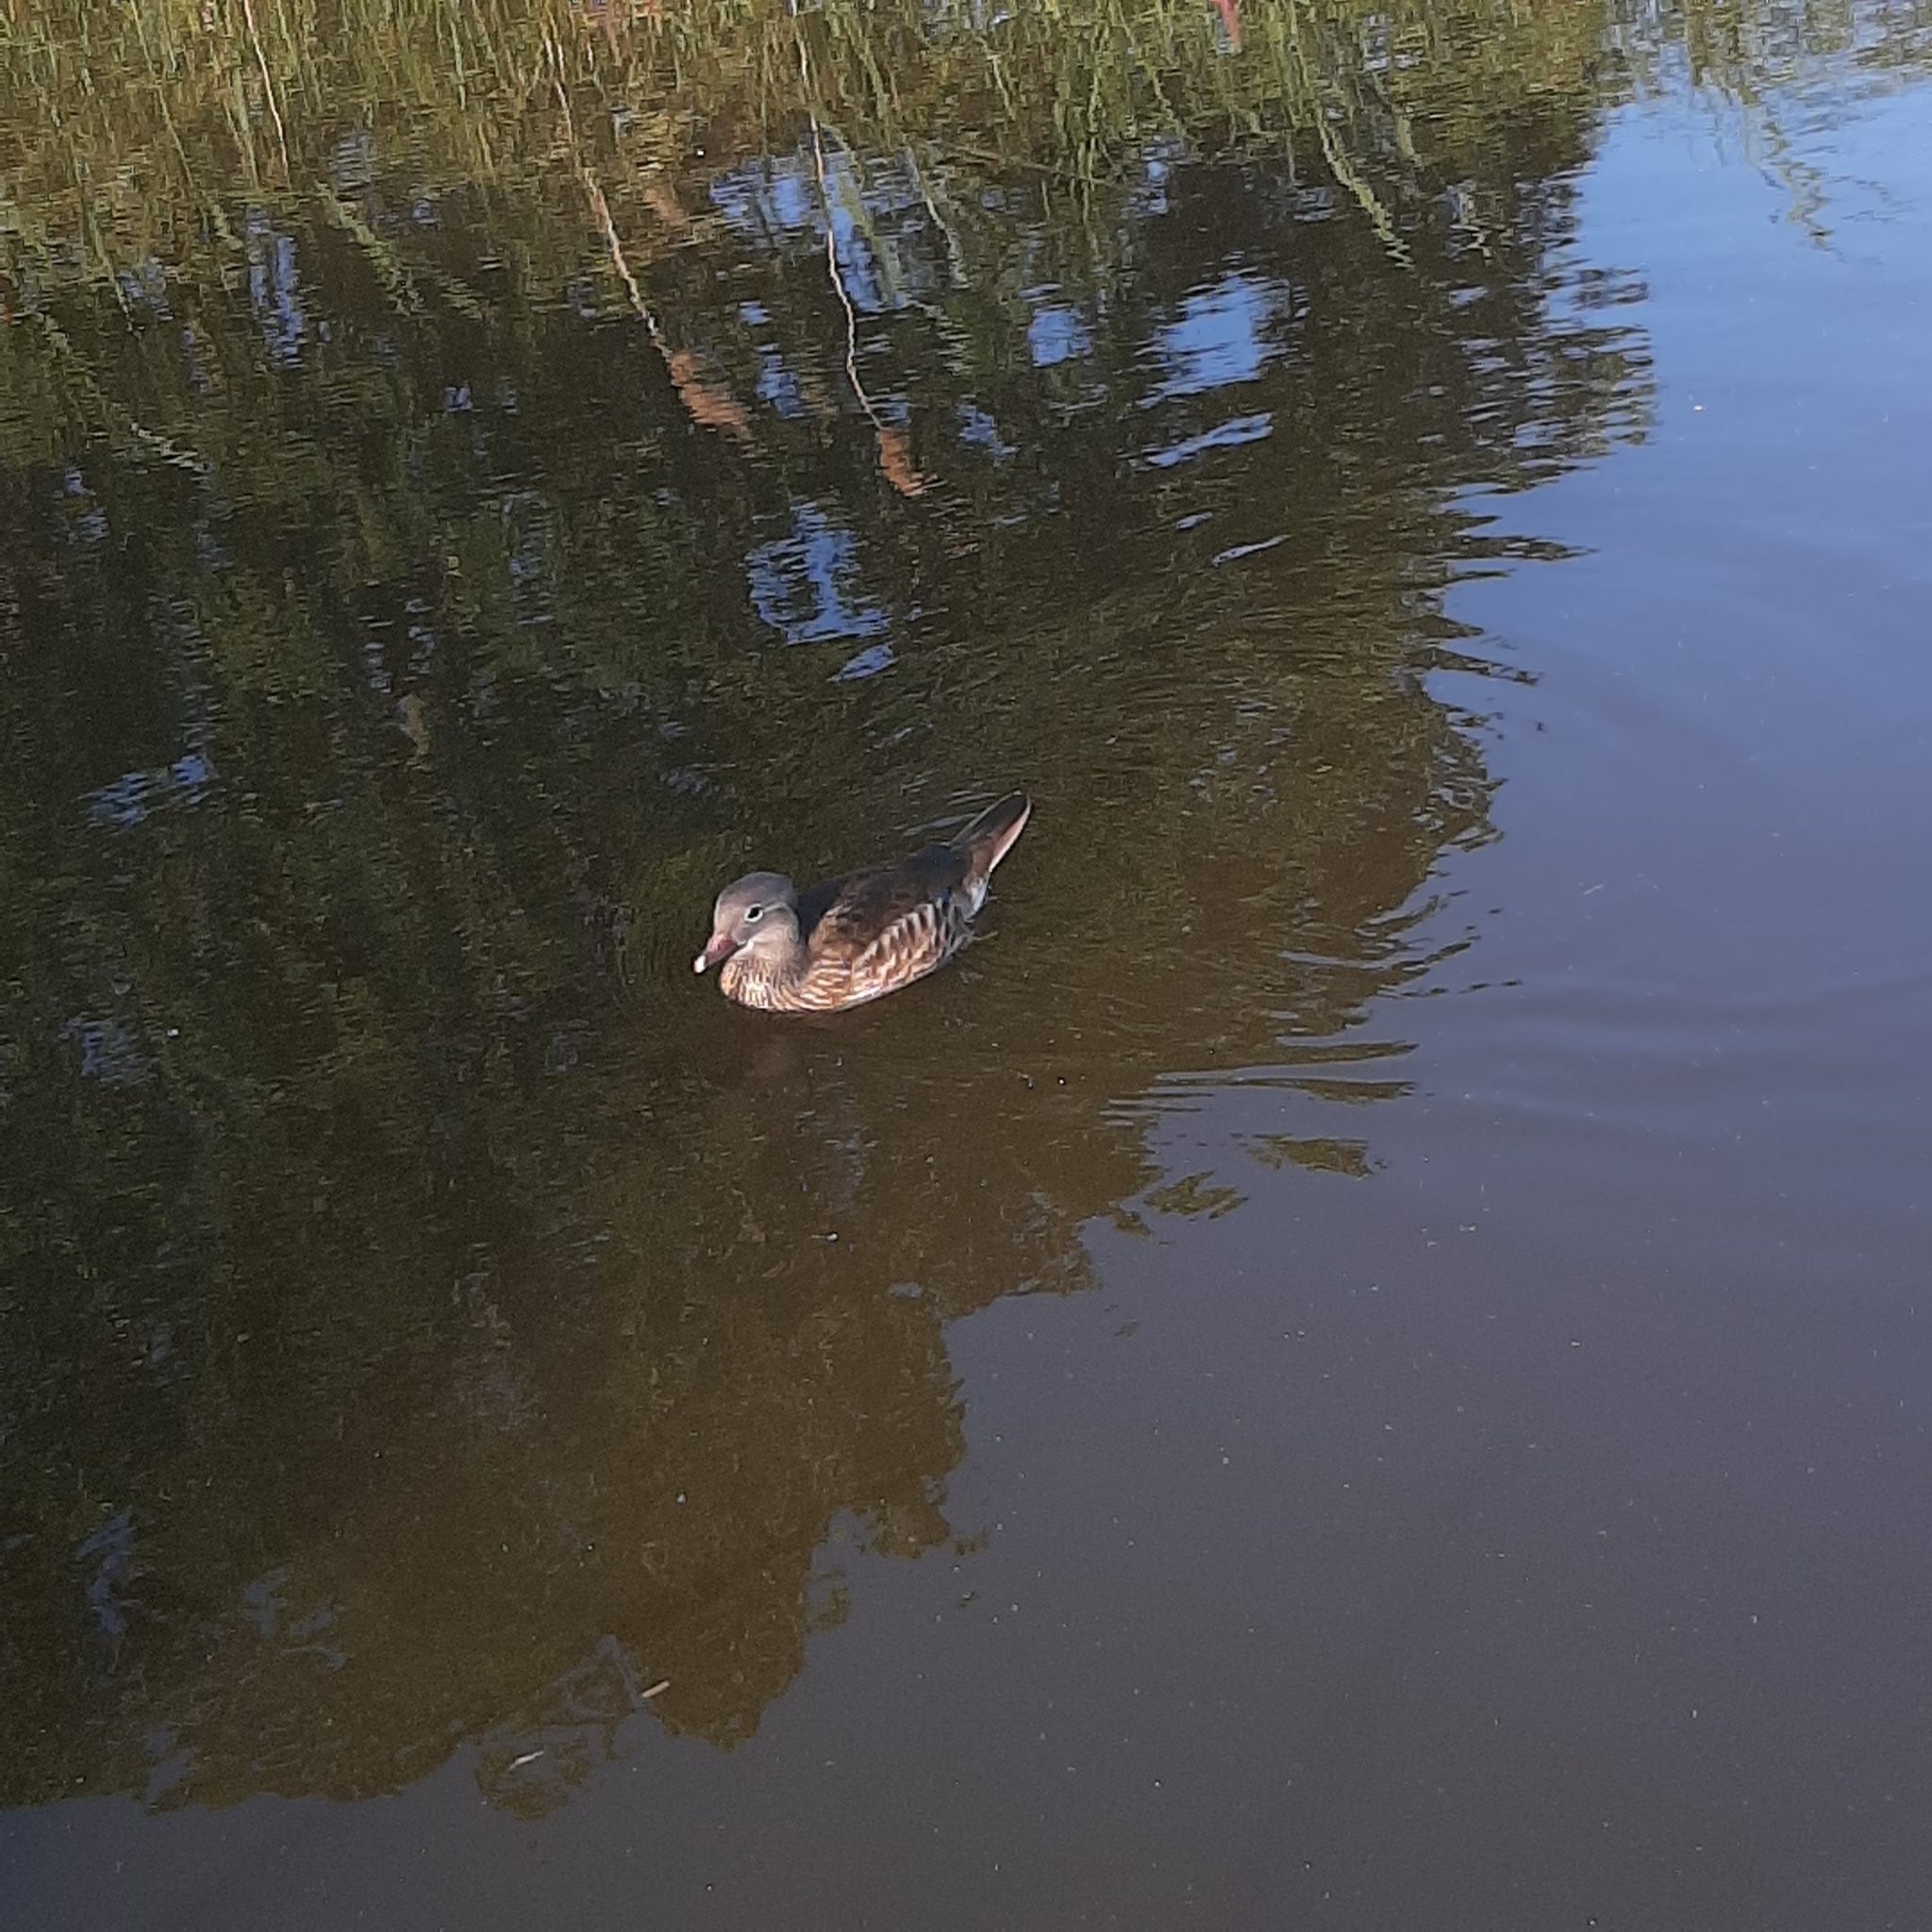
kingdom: Animalia
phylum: Chordata
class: Aves
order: Anseriformes
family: Anatidae
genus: Aix
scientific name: Aix galericulata
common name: Mandarin duck
